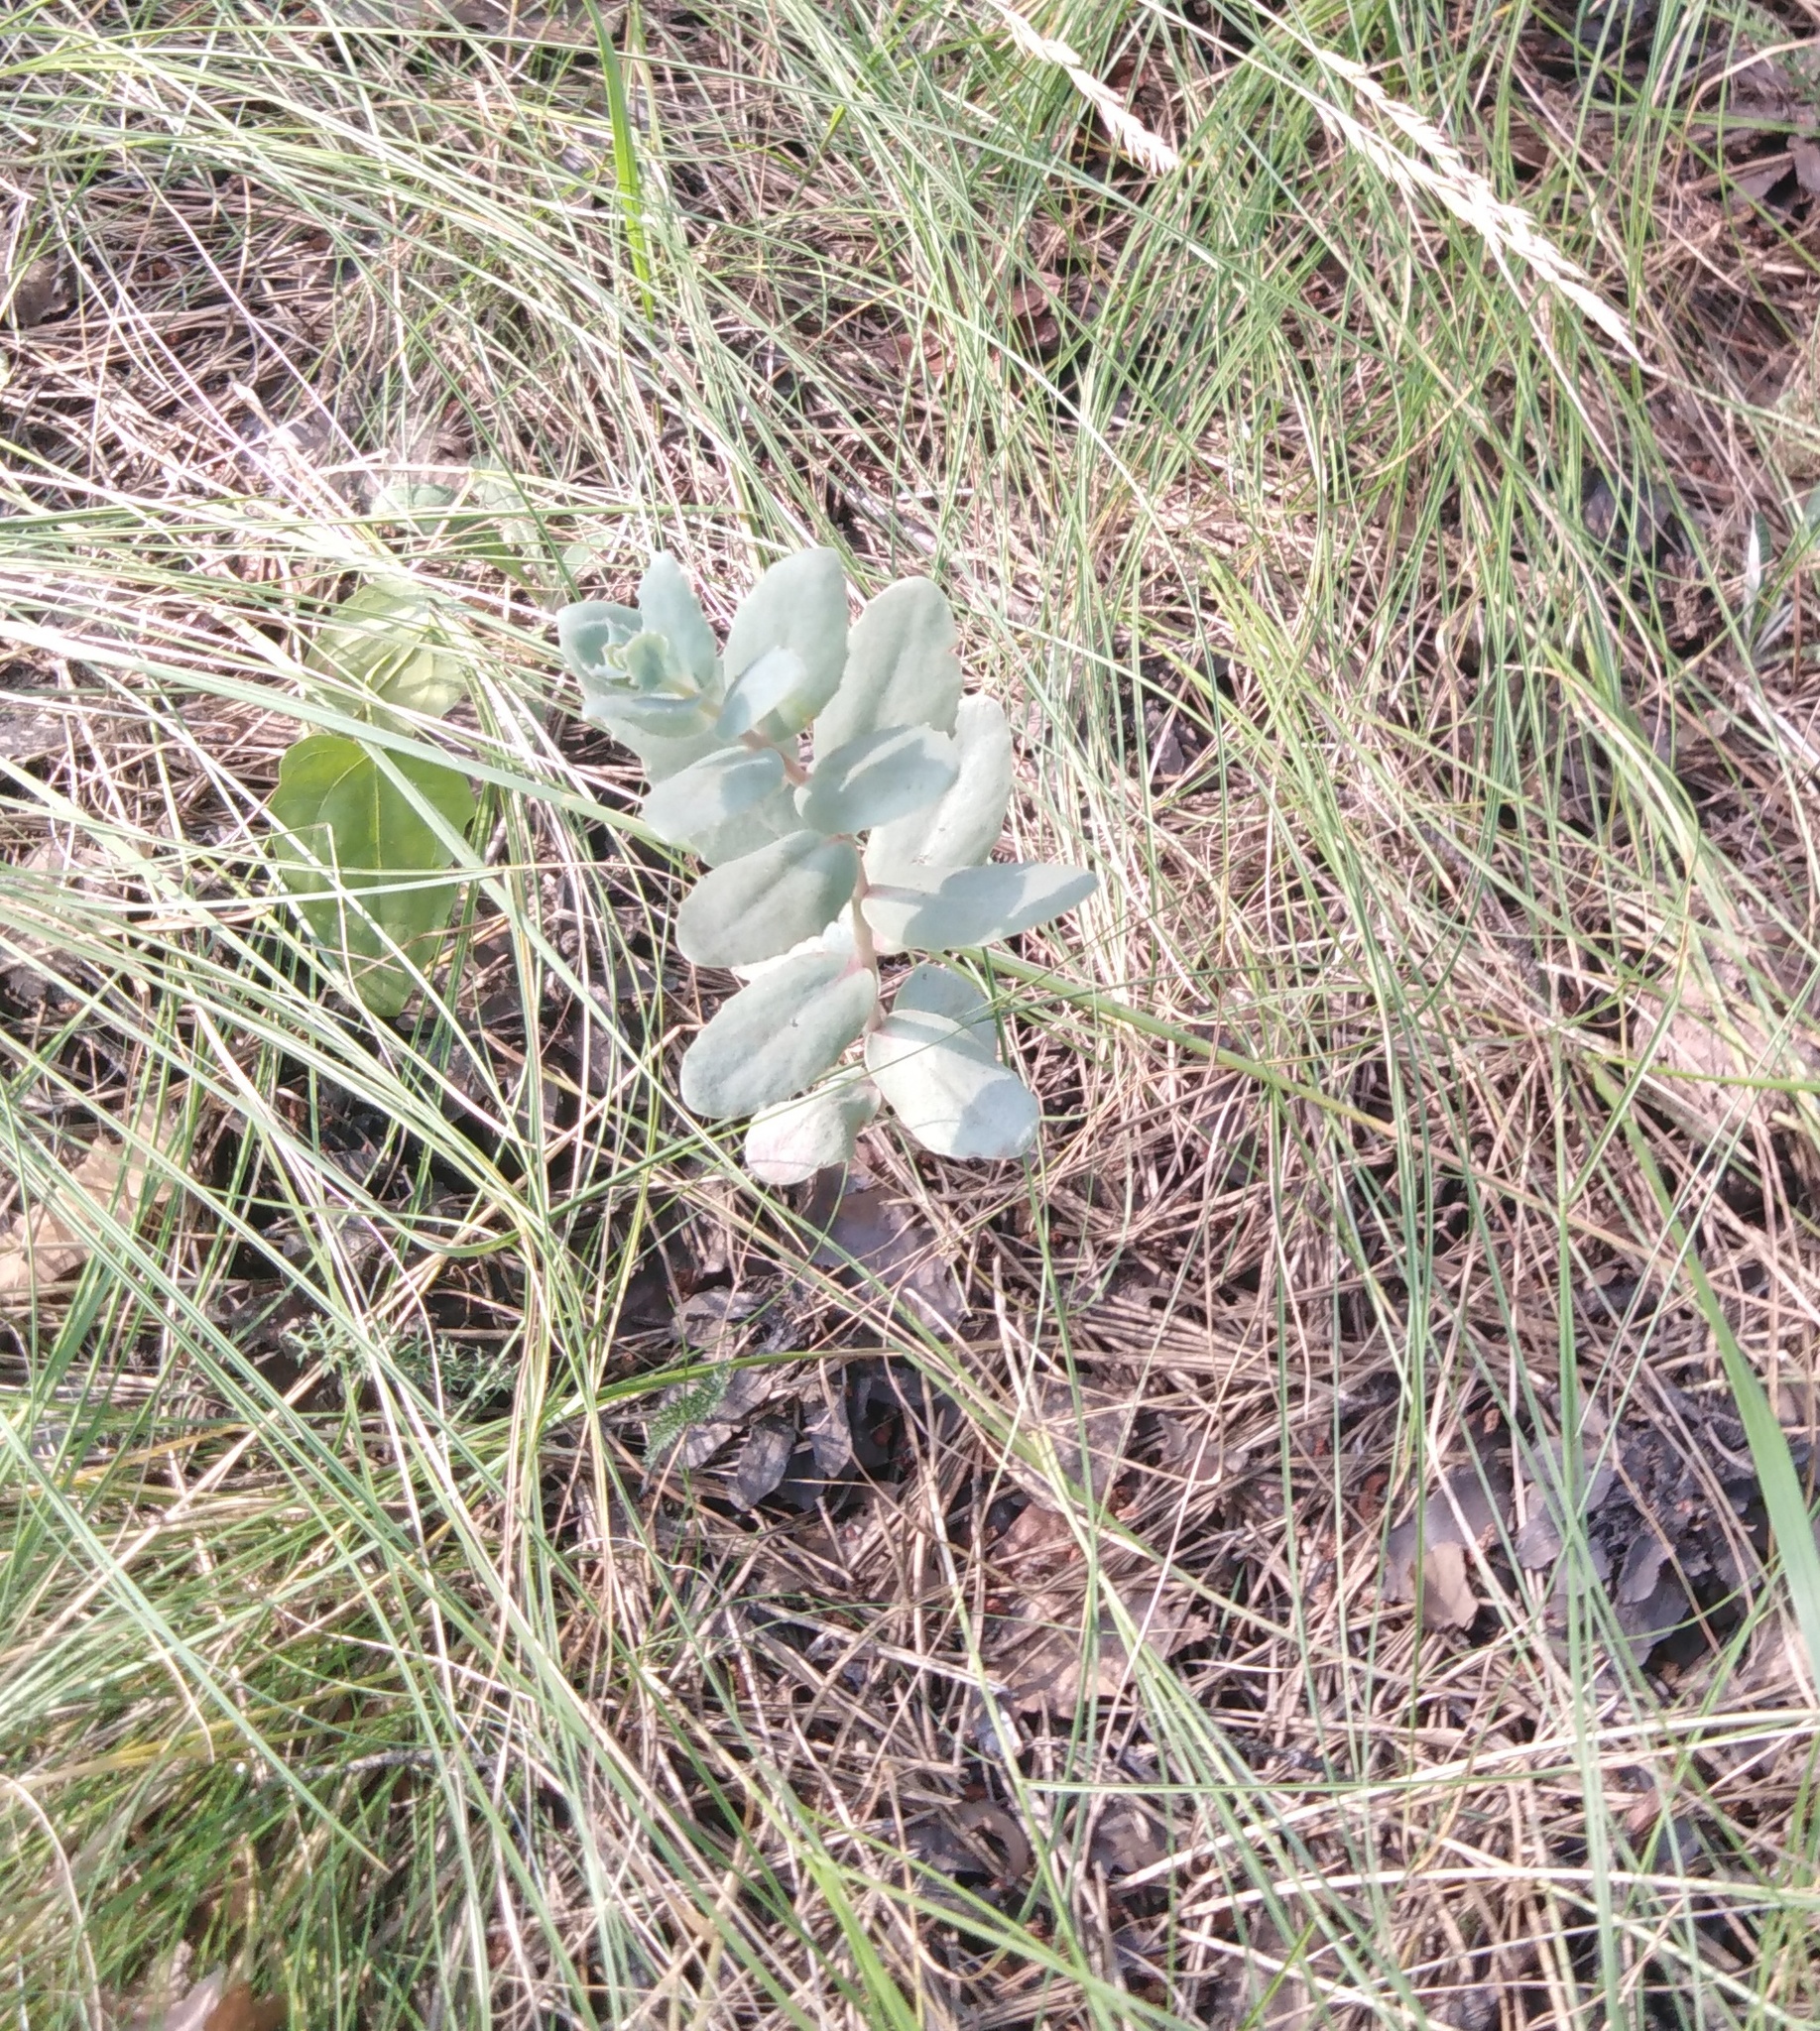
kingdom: Plantae
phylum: Tracheophyta
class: Magnoliopsida
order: Saxifragales
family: Crassulaceae
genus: Hylotelephium
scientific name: Hylotelephium maximum
